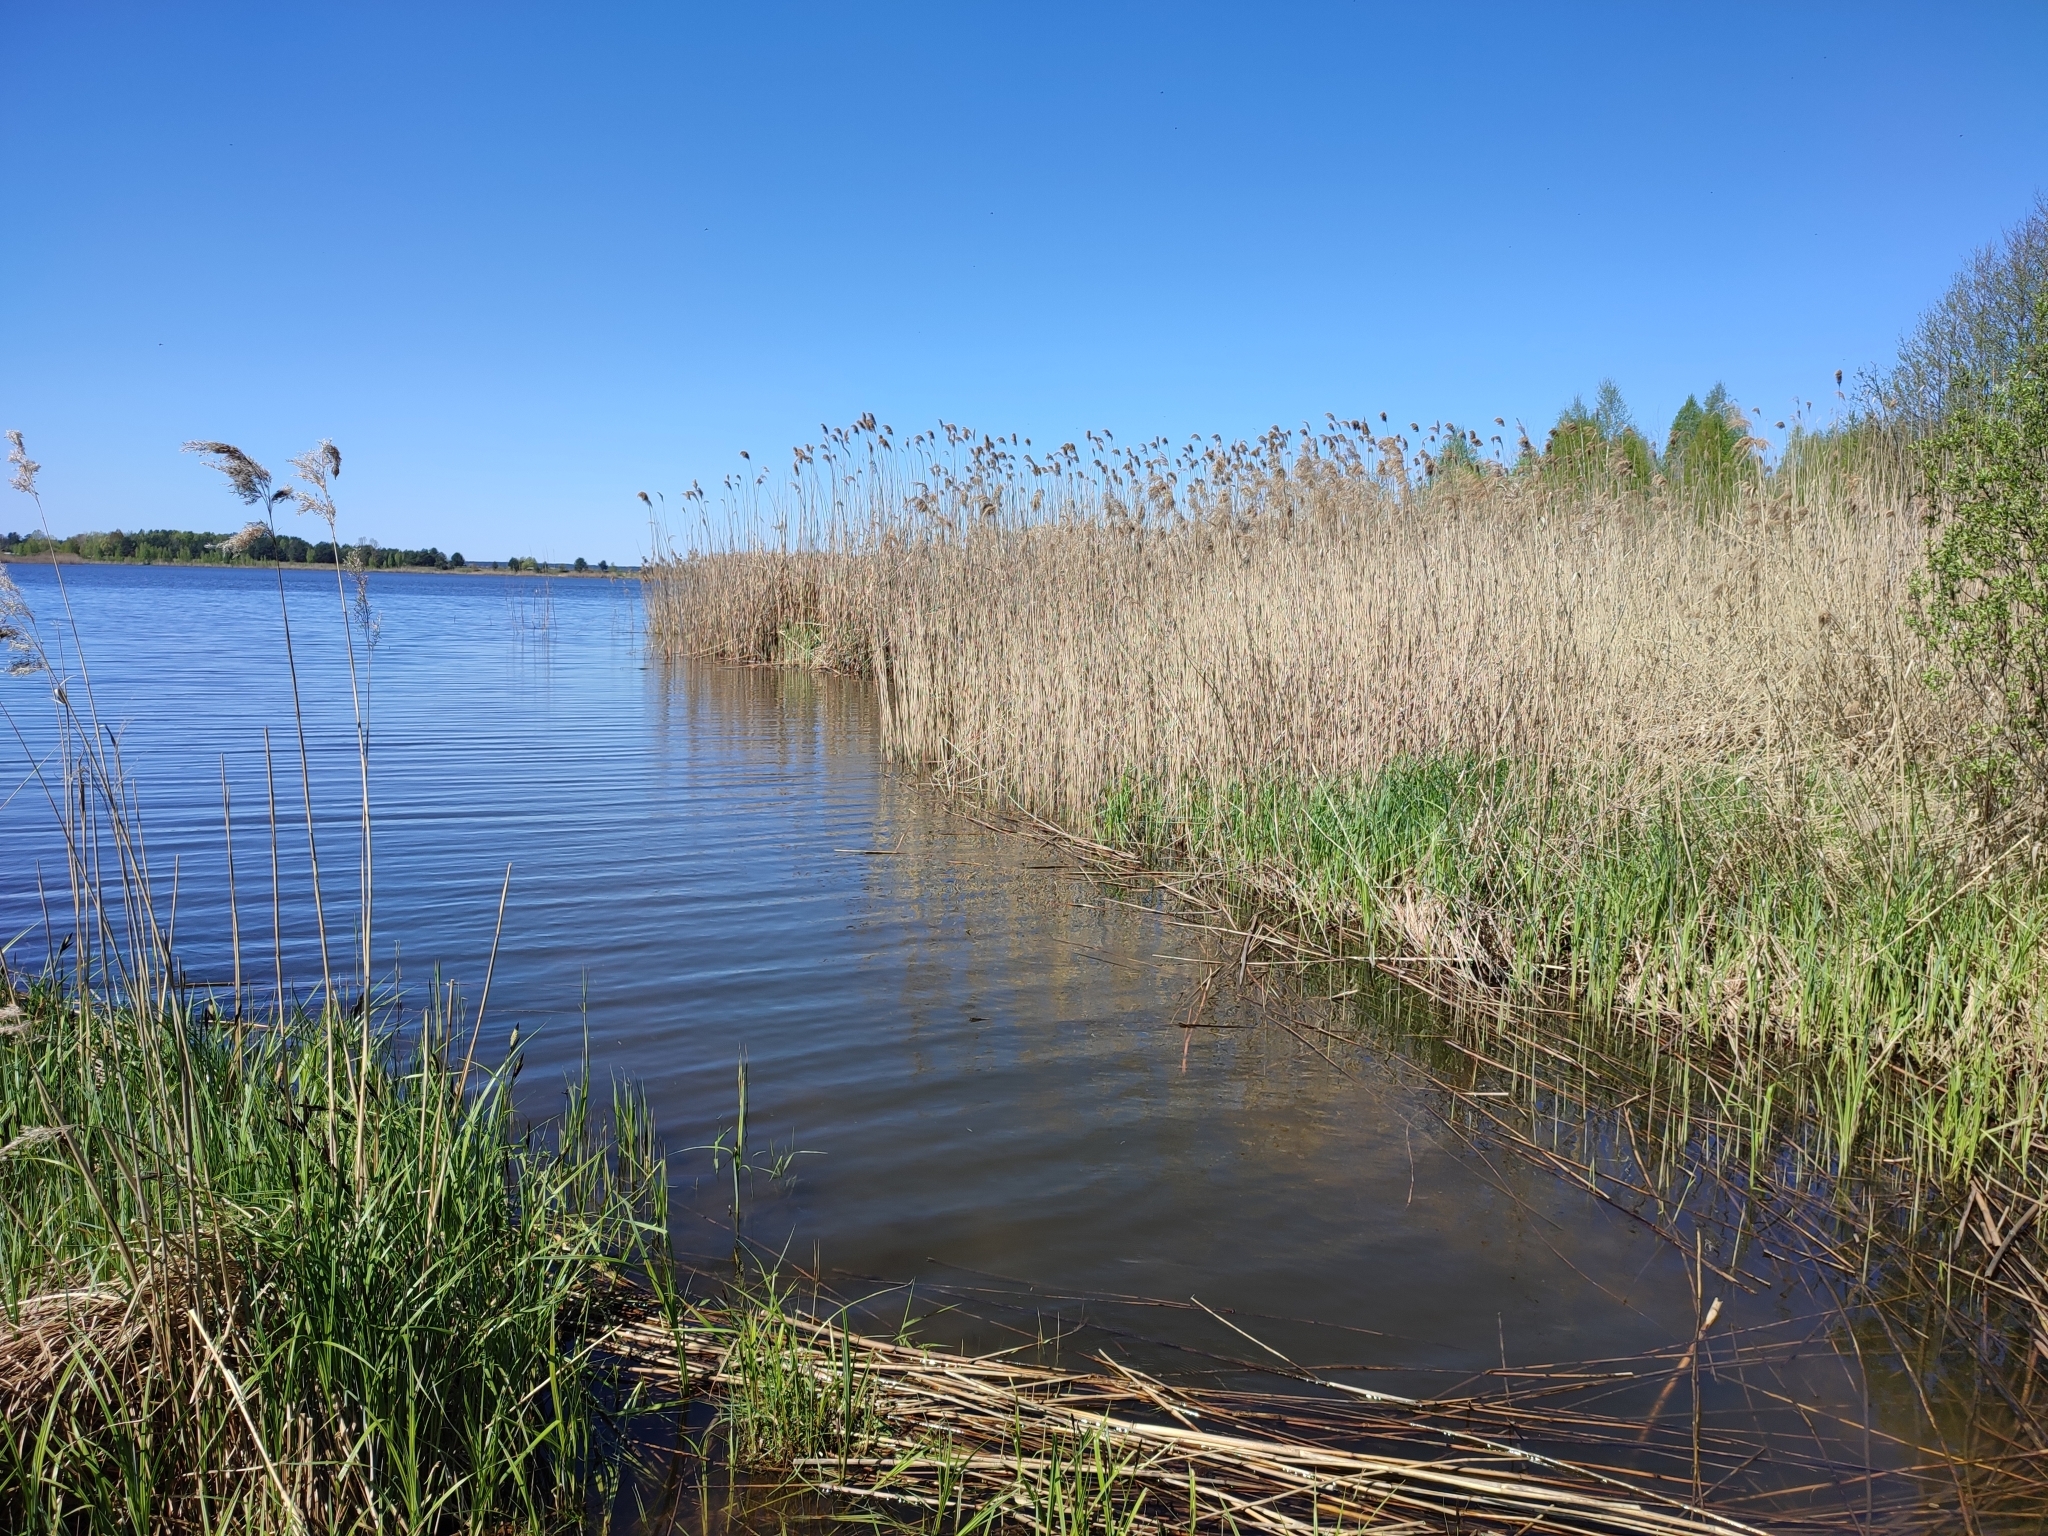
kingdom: Plantae
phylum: Tracheophyta
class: Liliopsida
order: Poales
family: Poaceae
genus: Phragmites
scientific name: Phragmites australis
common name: Common reed
